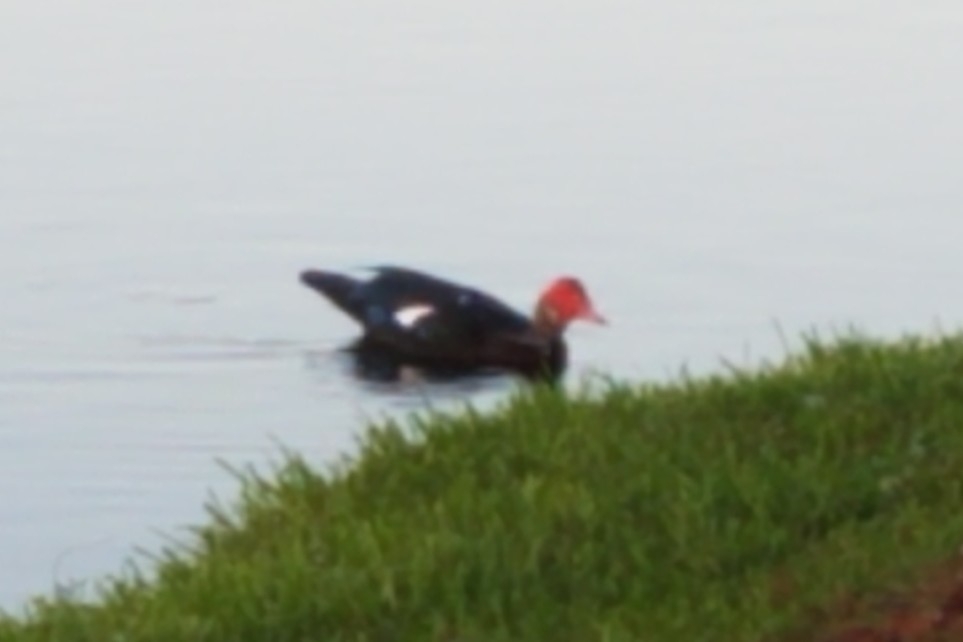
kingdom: Animalia
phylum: Chordata
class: Aves
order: Anseriformes
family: Anatidae
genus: Cairina
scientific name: Cairina moschata
